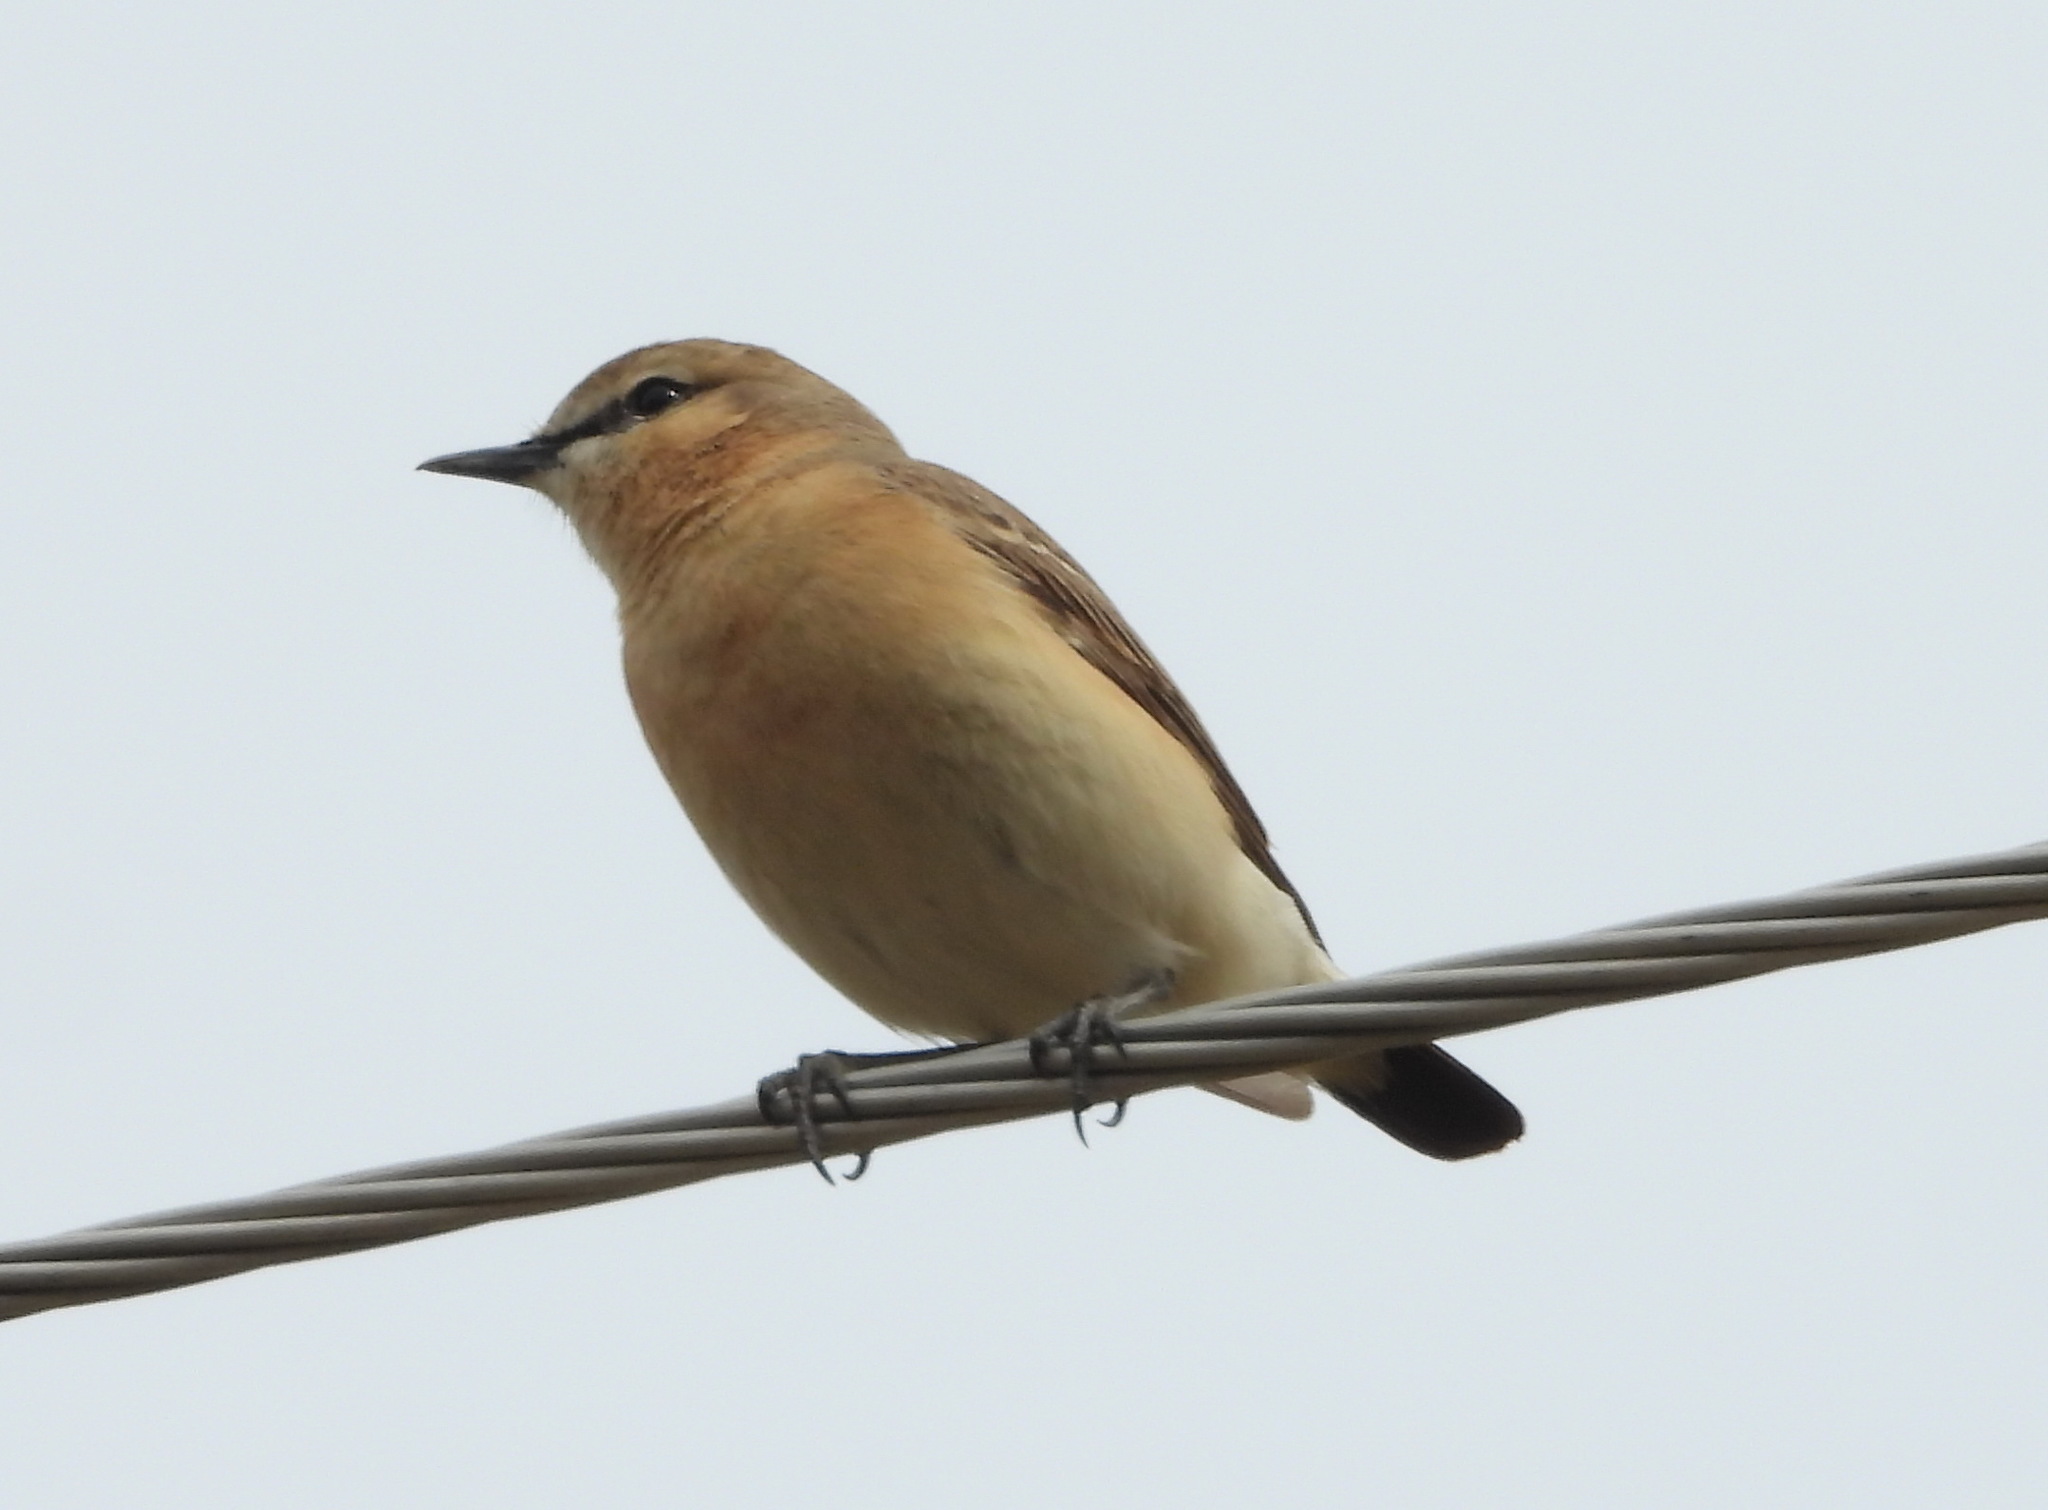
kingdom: Animalia
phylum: Chordata
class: Aves
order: Passeriformes
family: Muscicapidae
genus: Oenanthe
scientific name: Oenanthe isabellina
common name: Isabelline wheatear
